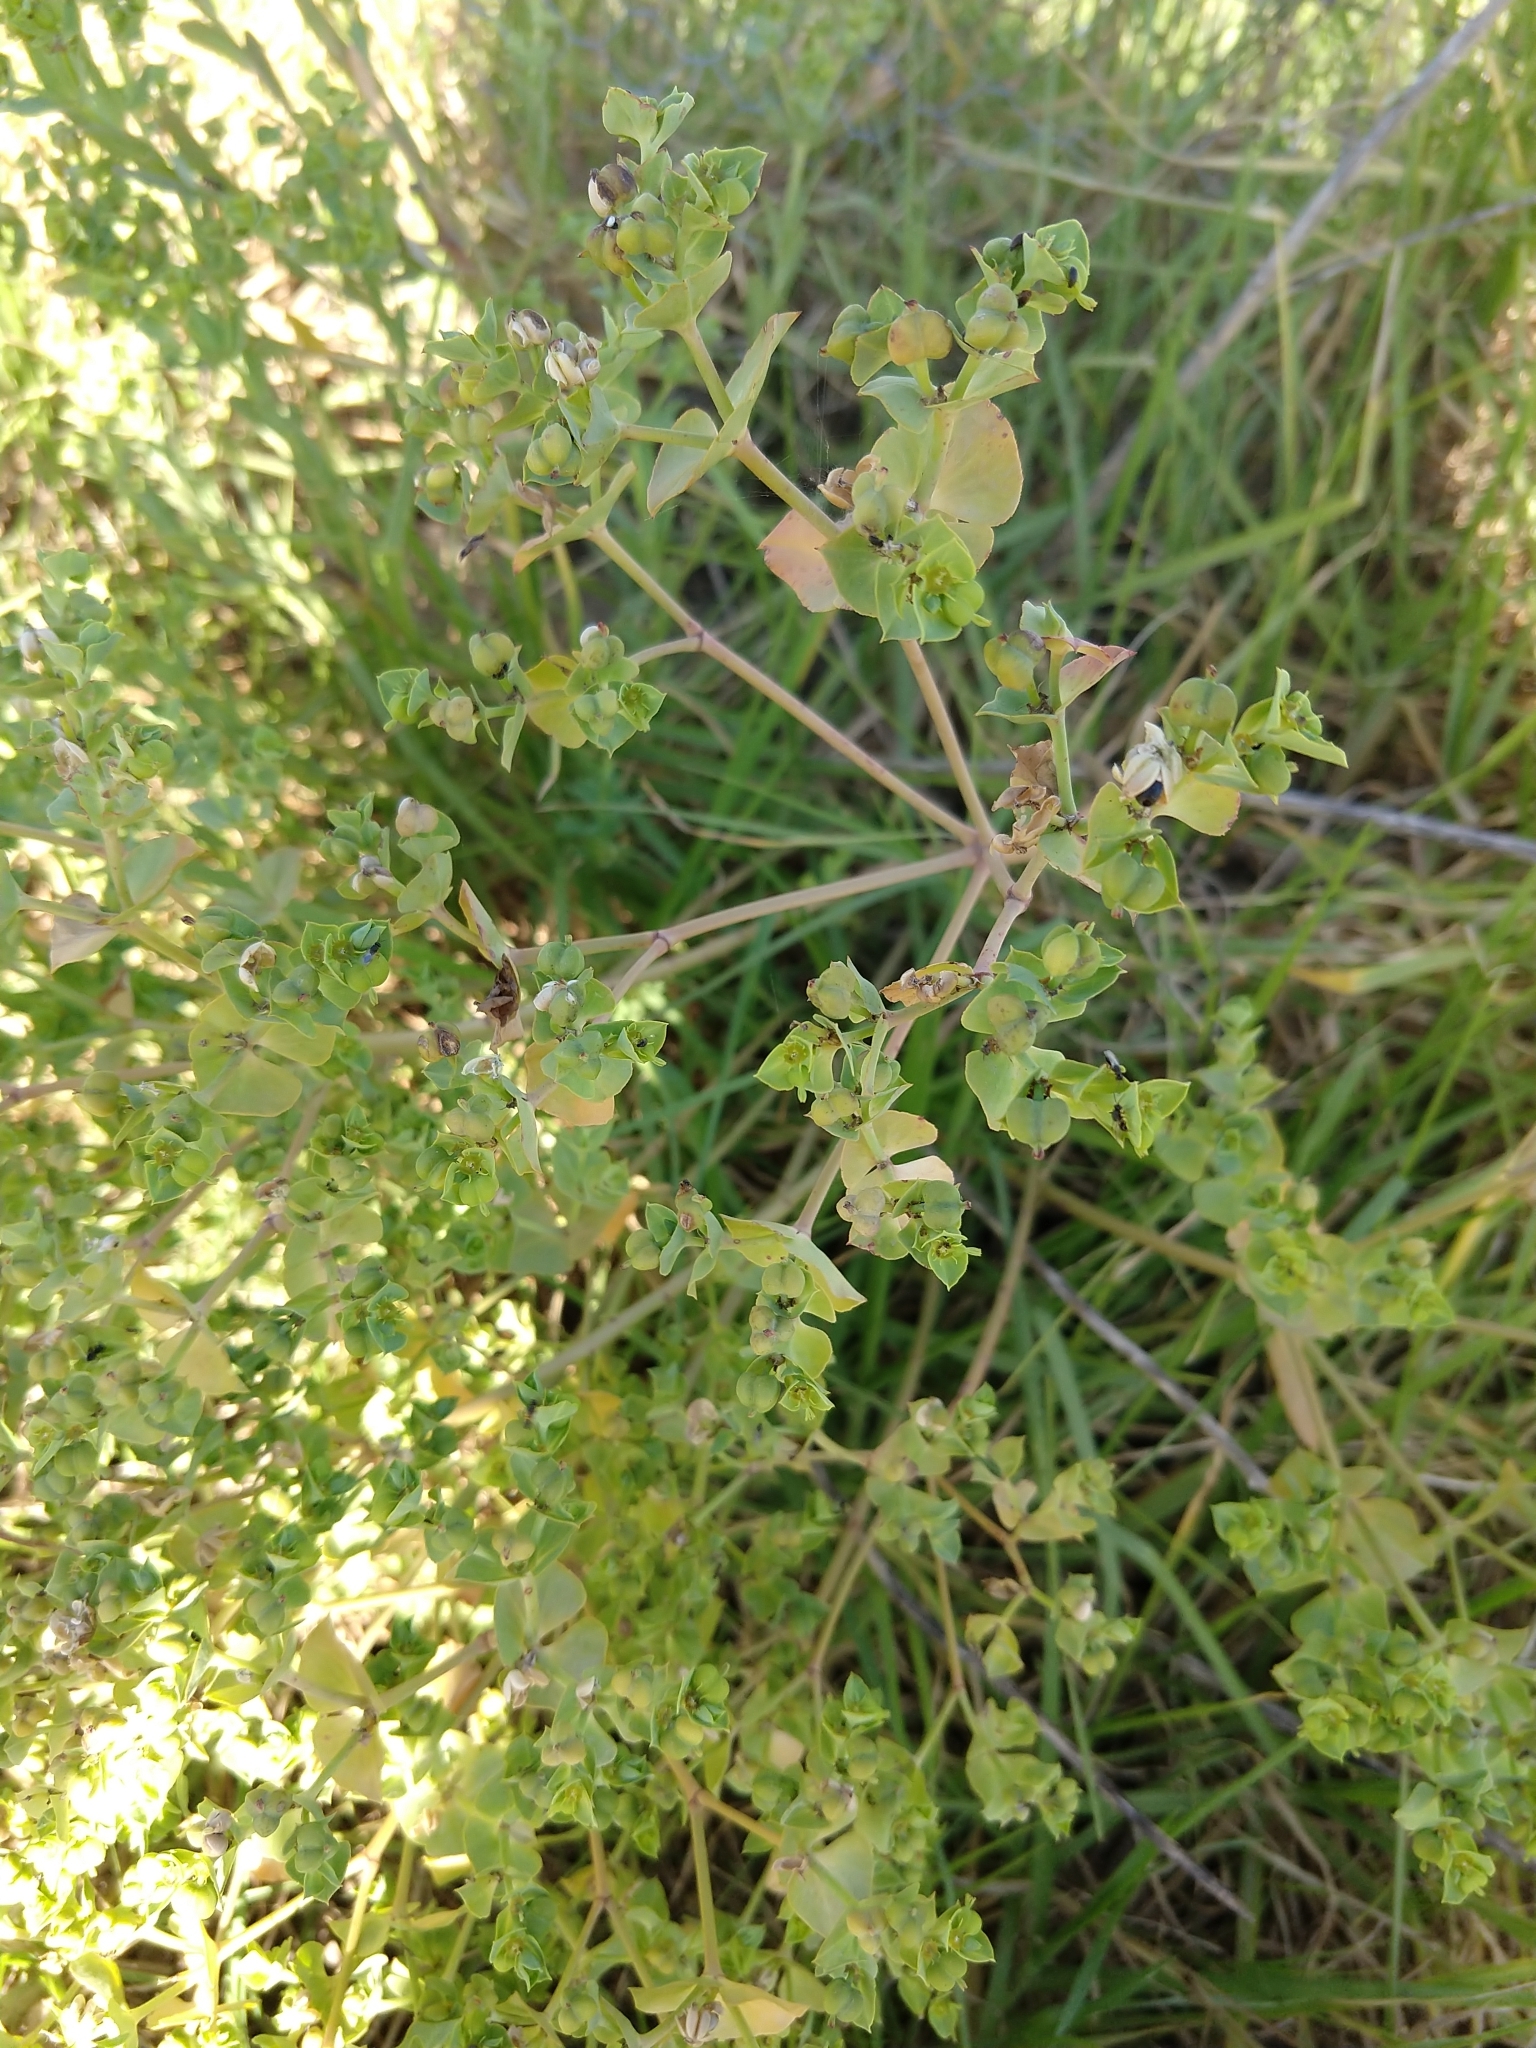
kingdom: Plantae
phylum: Tracheophyta
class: Magnoliopsida
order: Malpighiales
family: Euphorbiaceae
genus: Euphorbia
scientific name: Euphorbia terracina
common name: Geraldton carnation weed
